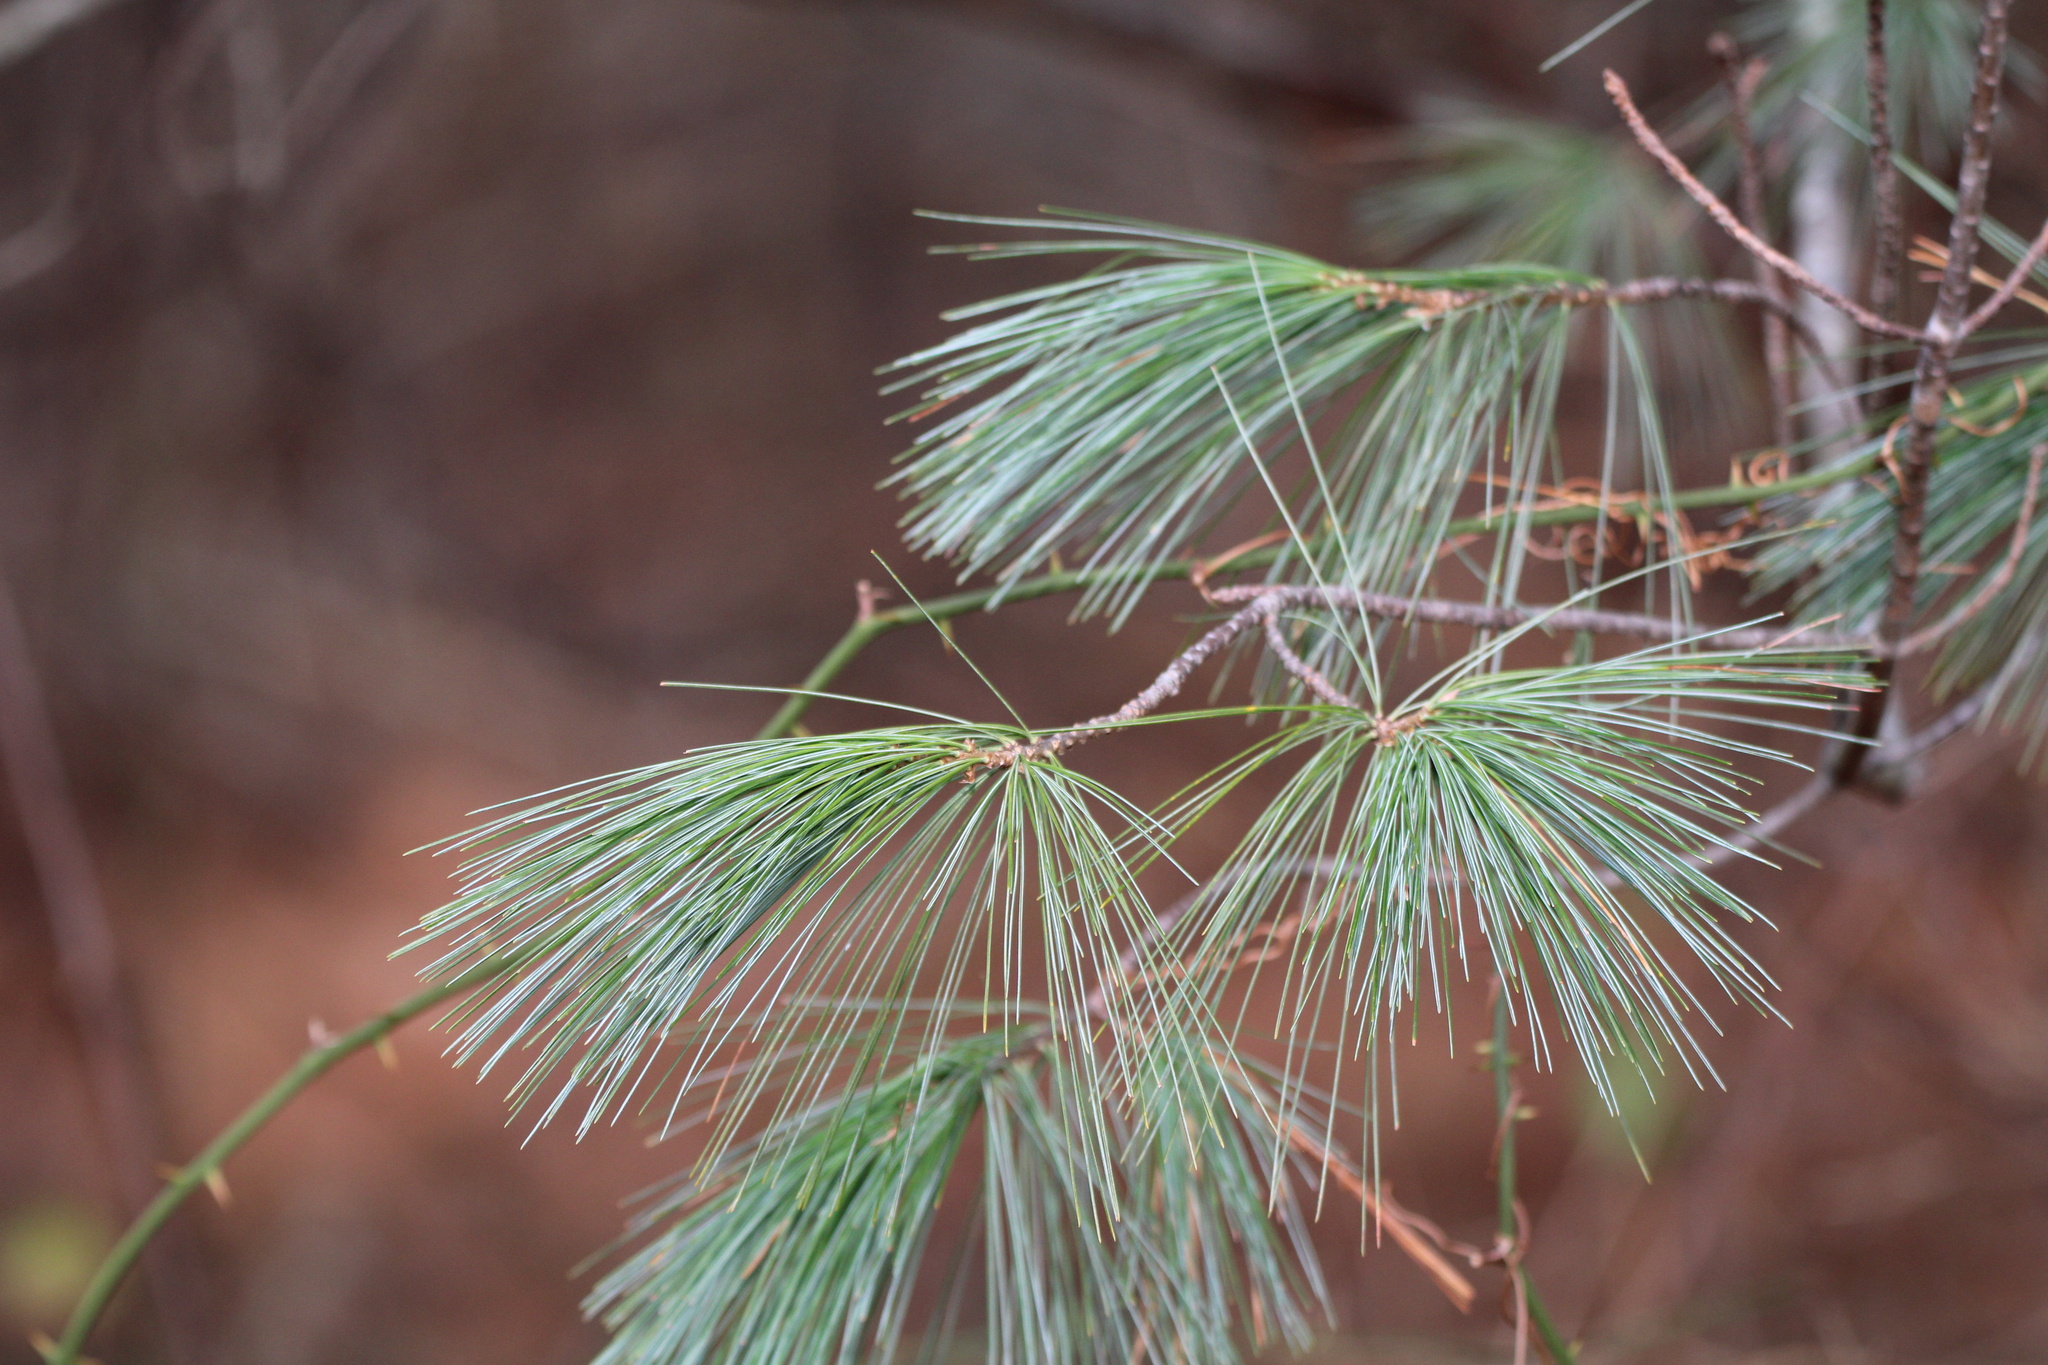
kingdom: Plantae
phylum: Tracheophyta
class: Pinopsida
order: Pinales
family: Pinaceae
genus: Pinus
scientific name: Pinus strobus
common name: Weymouth pine
